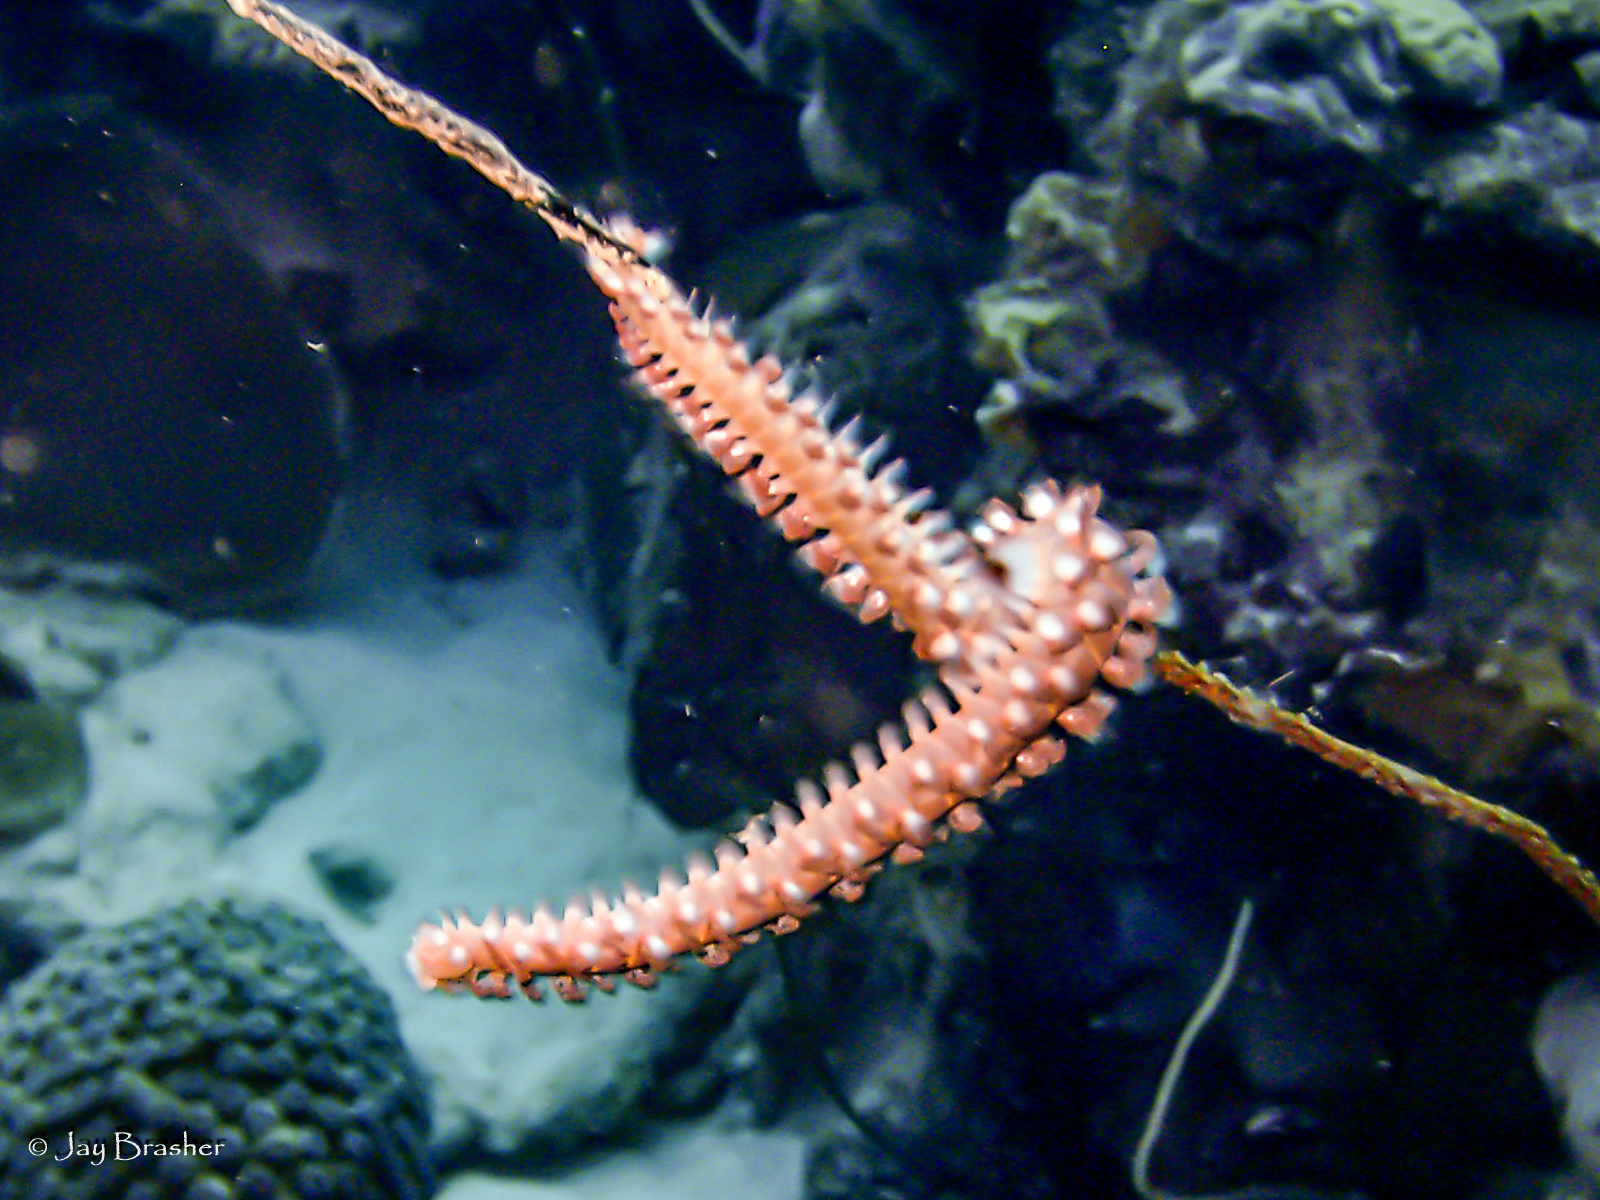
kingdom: Animalia
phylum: Annelida
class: Polychaeta
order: Amphinomida
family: Amphinomidae
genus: Hermodice
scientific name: Hermodice carunculata
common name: Bearded fireworm
